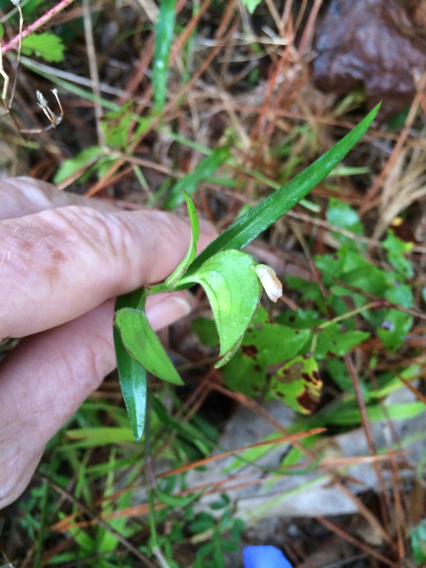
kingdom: Plantae
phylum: Tracheophyta
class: Liliopsida
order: Commelinales
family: Commelinaceae
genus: Commelina
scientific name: Commelina erecta
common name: Blousel blommetjie
